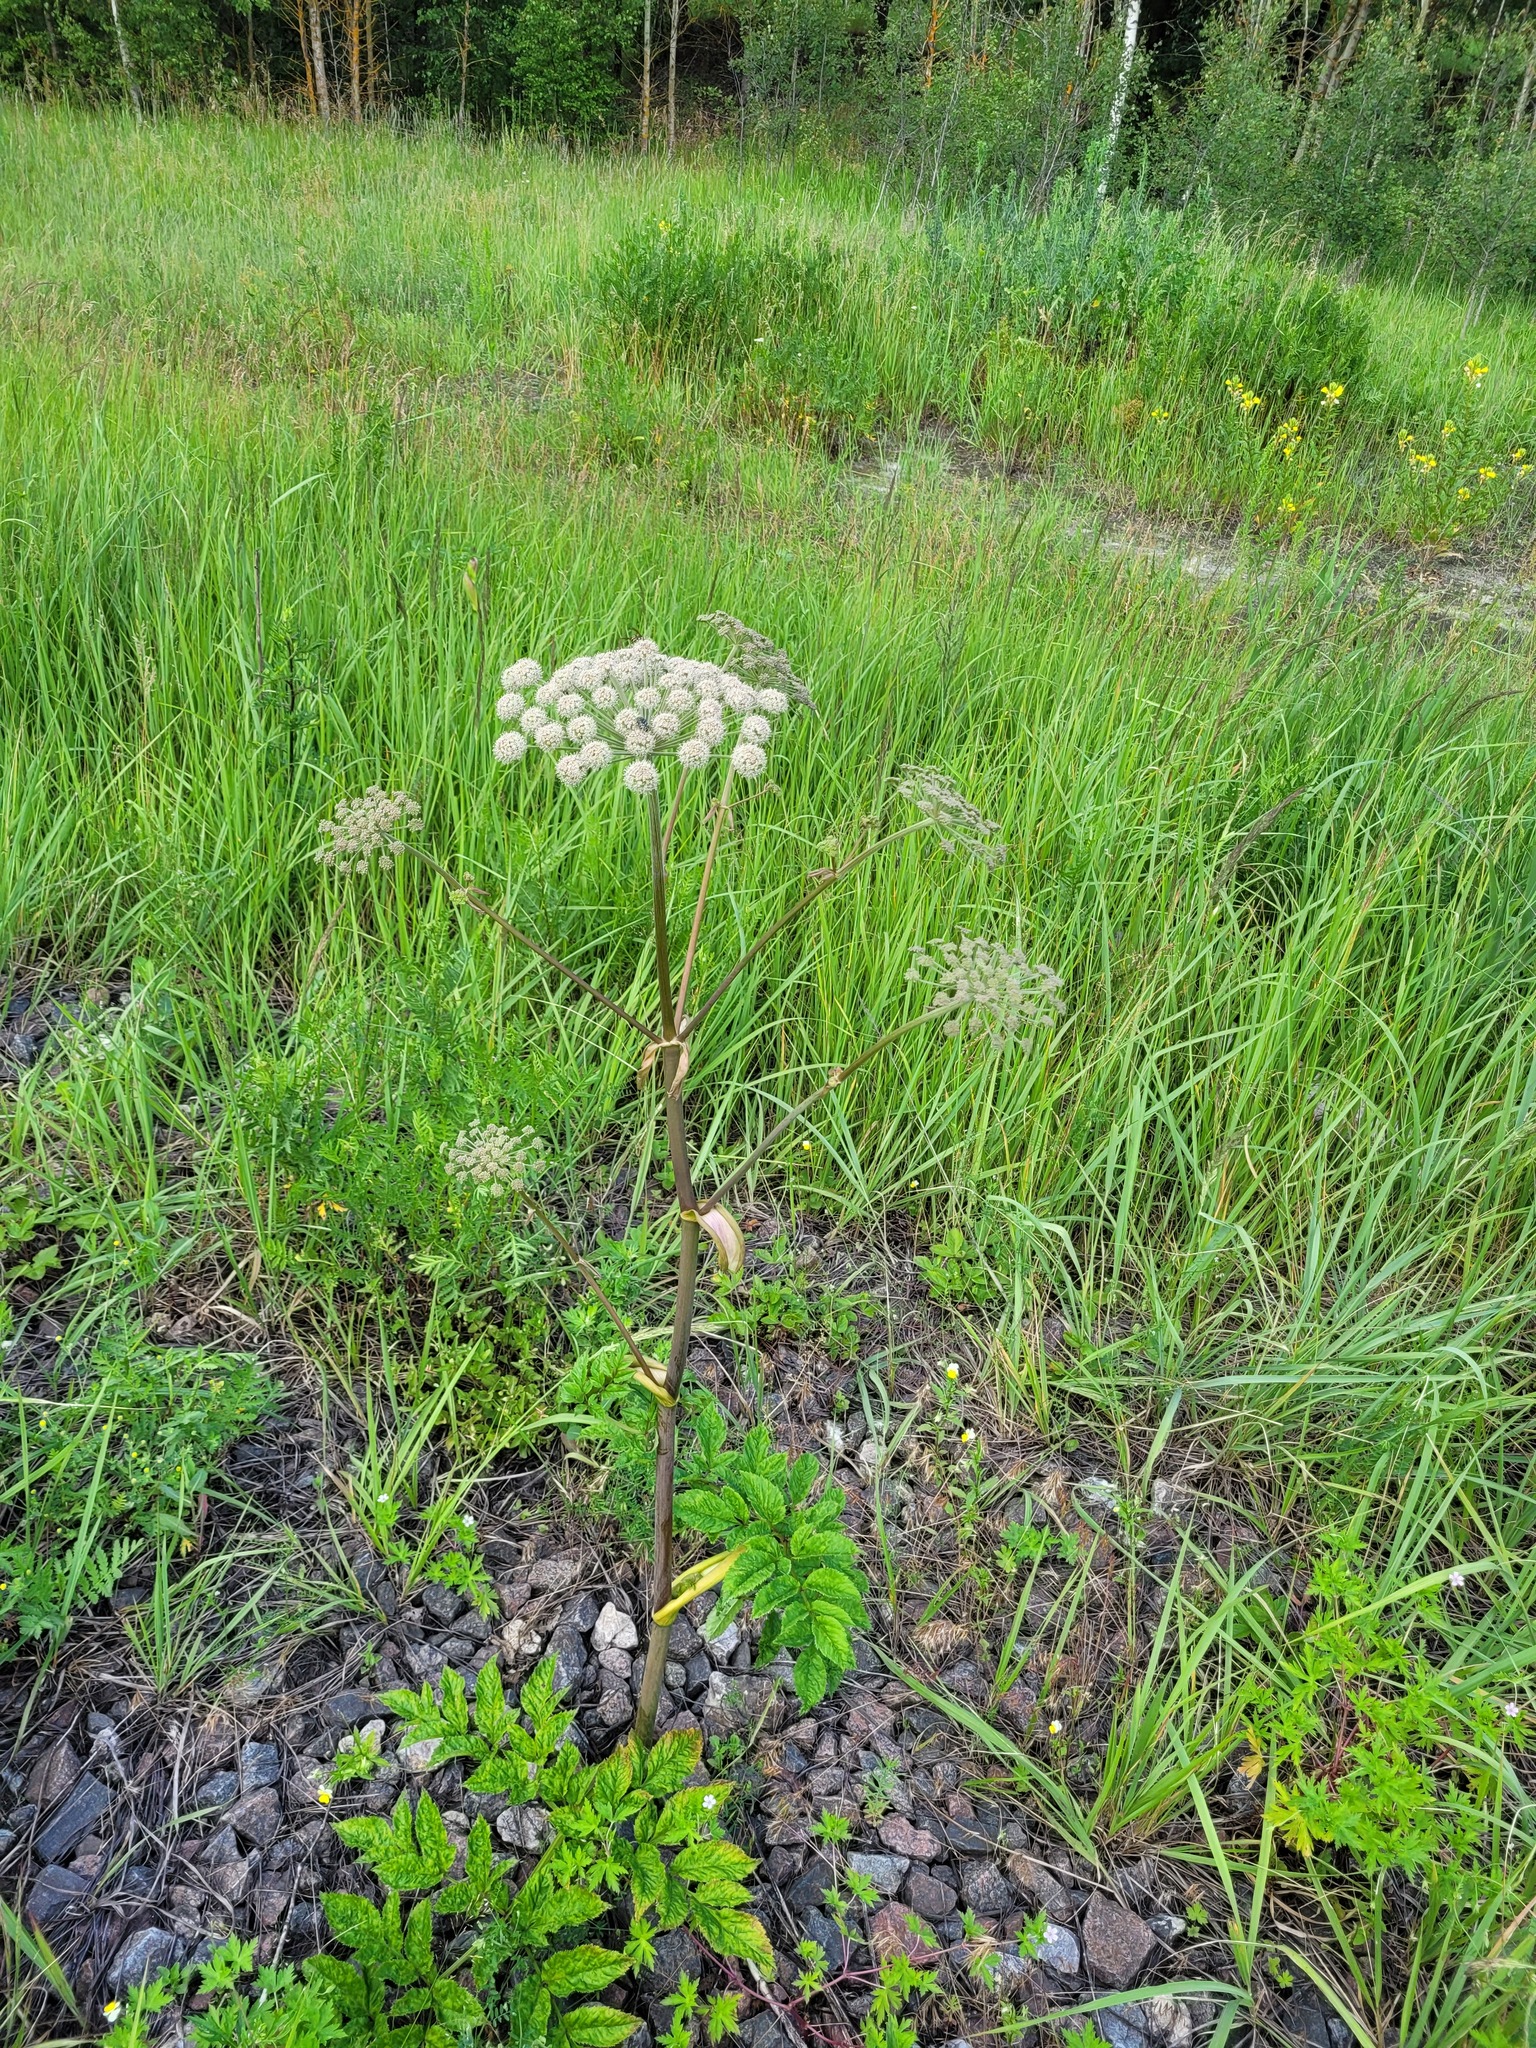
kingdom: Plantae
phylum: Tracheophyta
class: Magnoliopsida
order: Apiales
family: Apiaceae
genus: Angelica
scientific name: Angelica sylvestris
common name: Wild angelica
